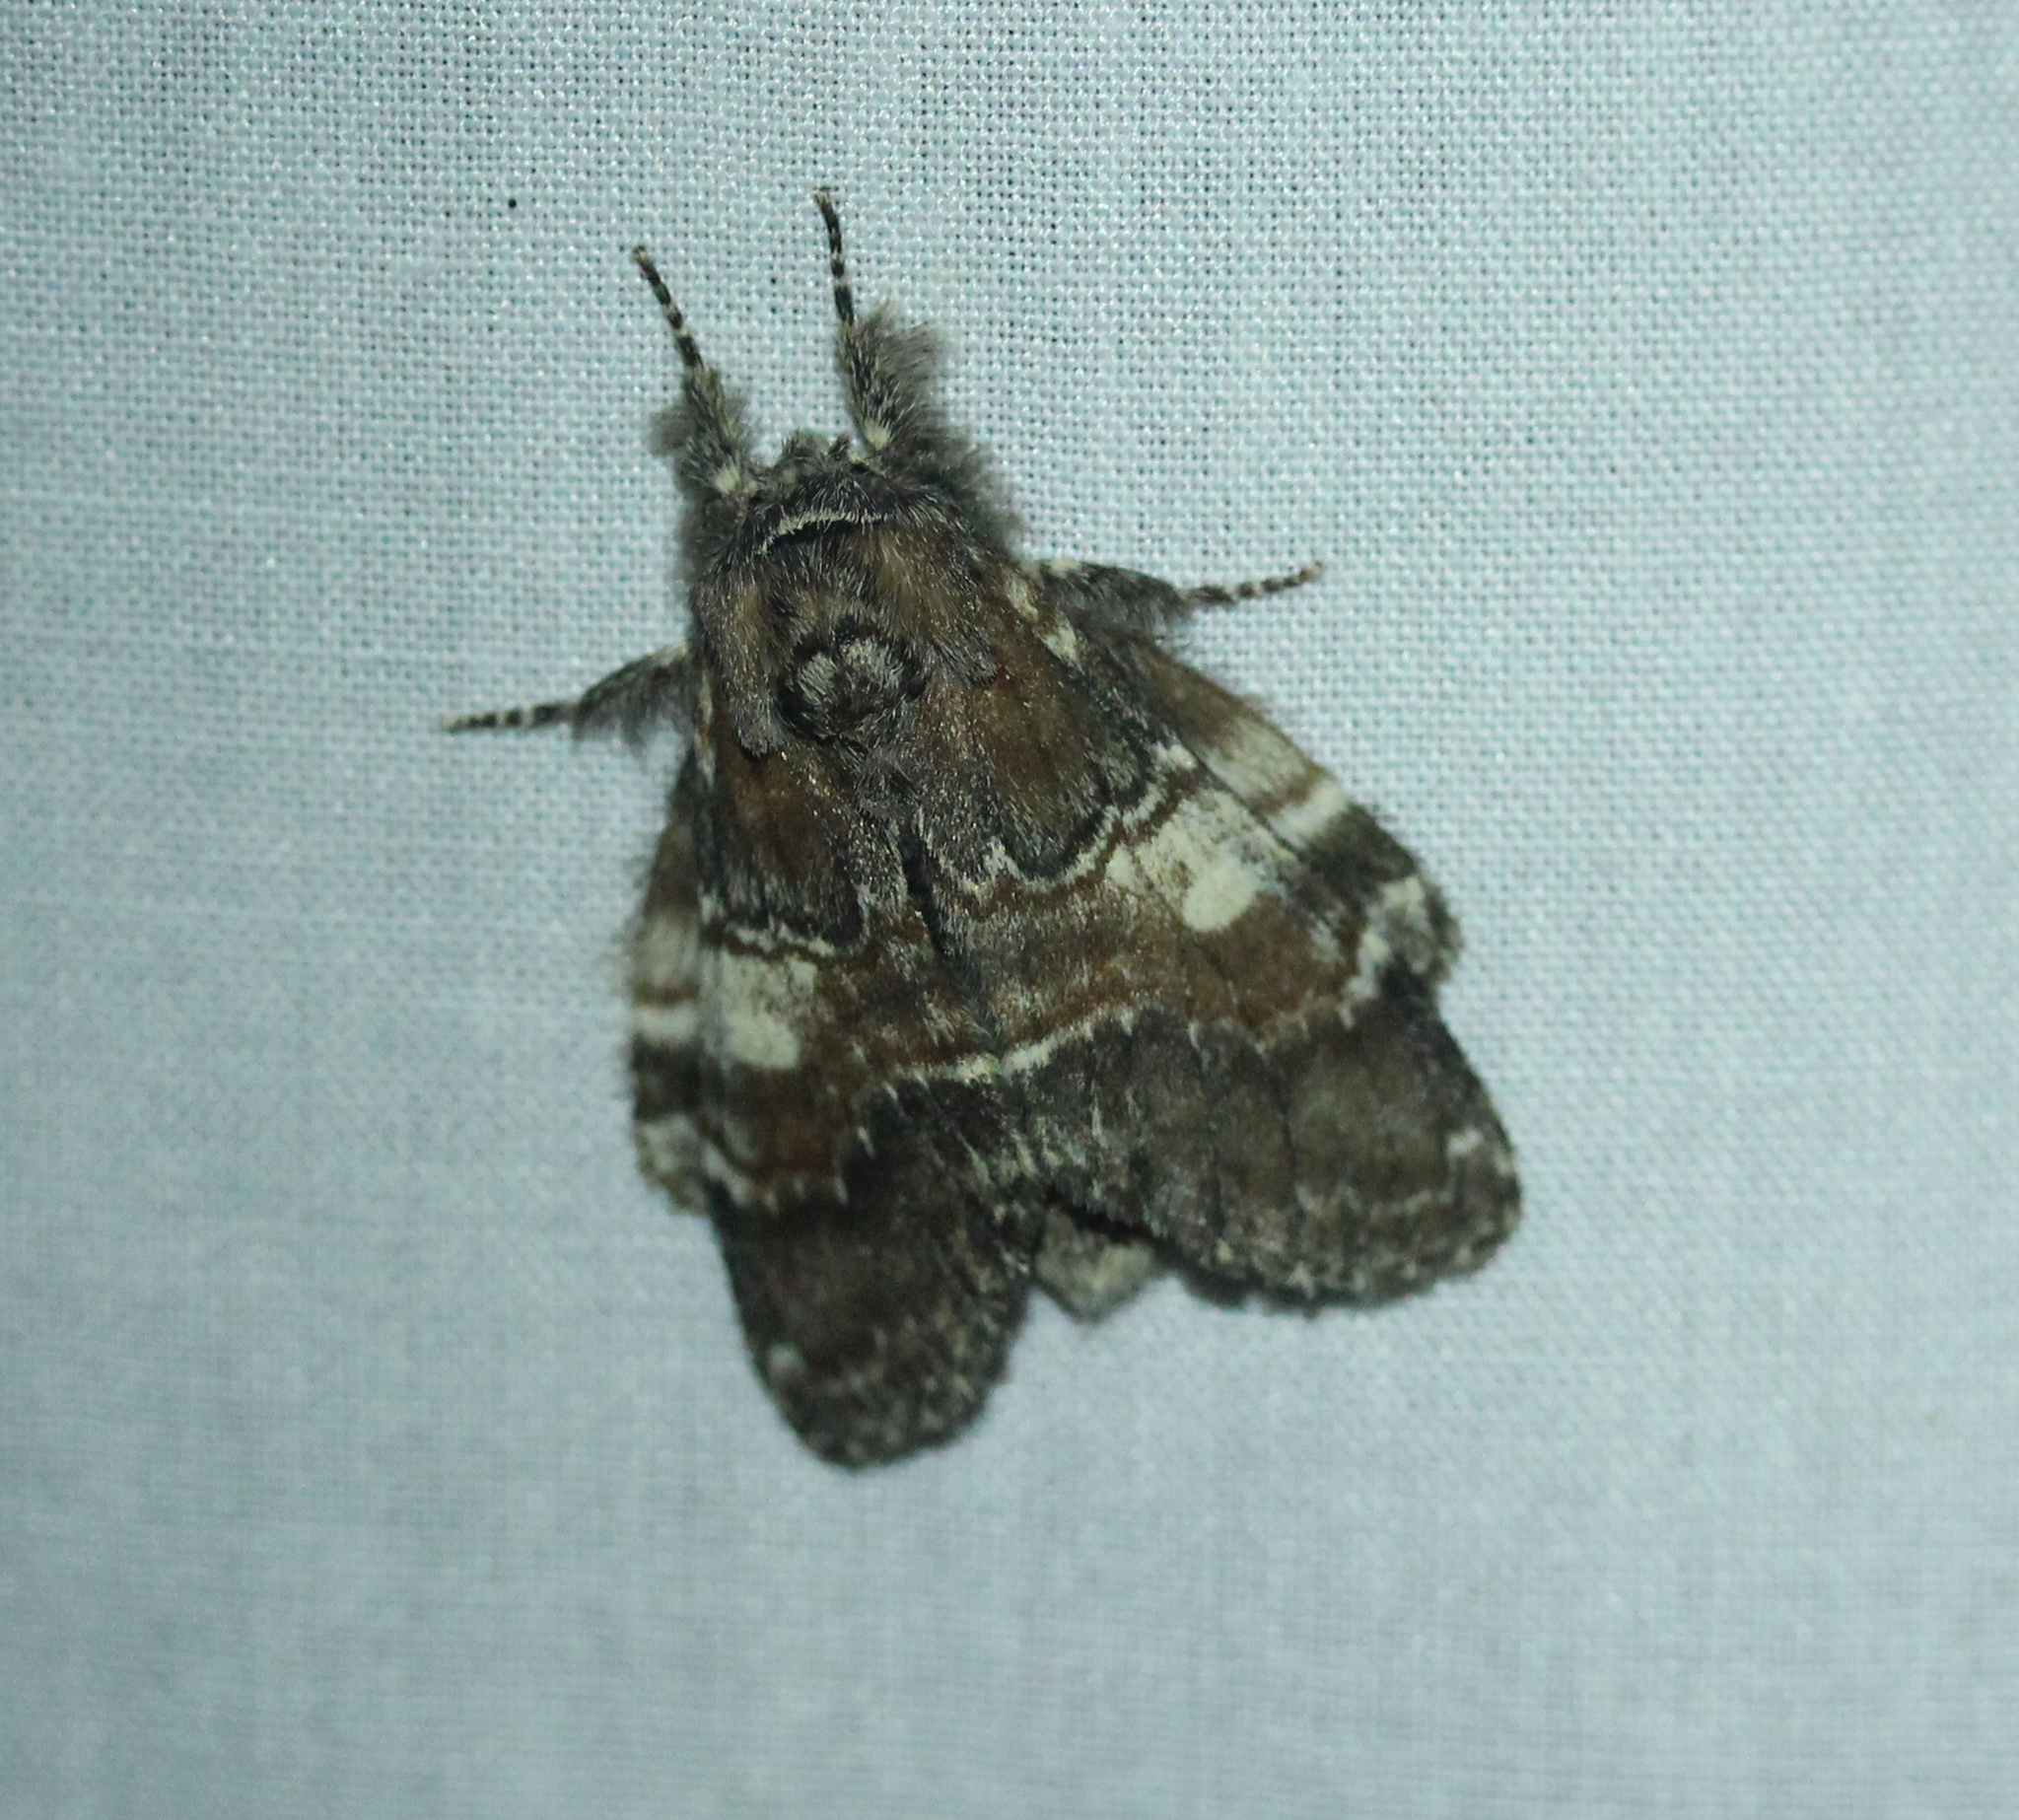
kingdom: Animalia
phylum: Arthropoda
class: Insecta
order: Lepidoptera
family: Notodontidae
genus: Peridea
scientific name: Peridea ferruginea
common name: Chocolate prominent
